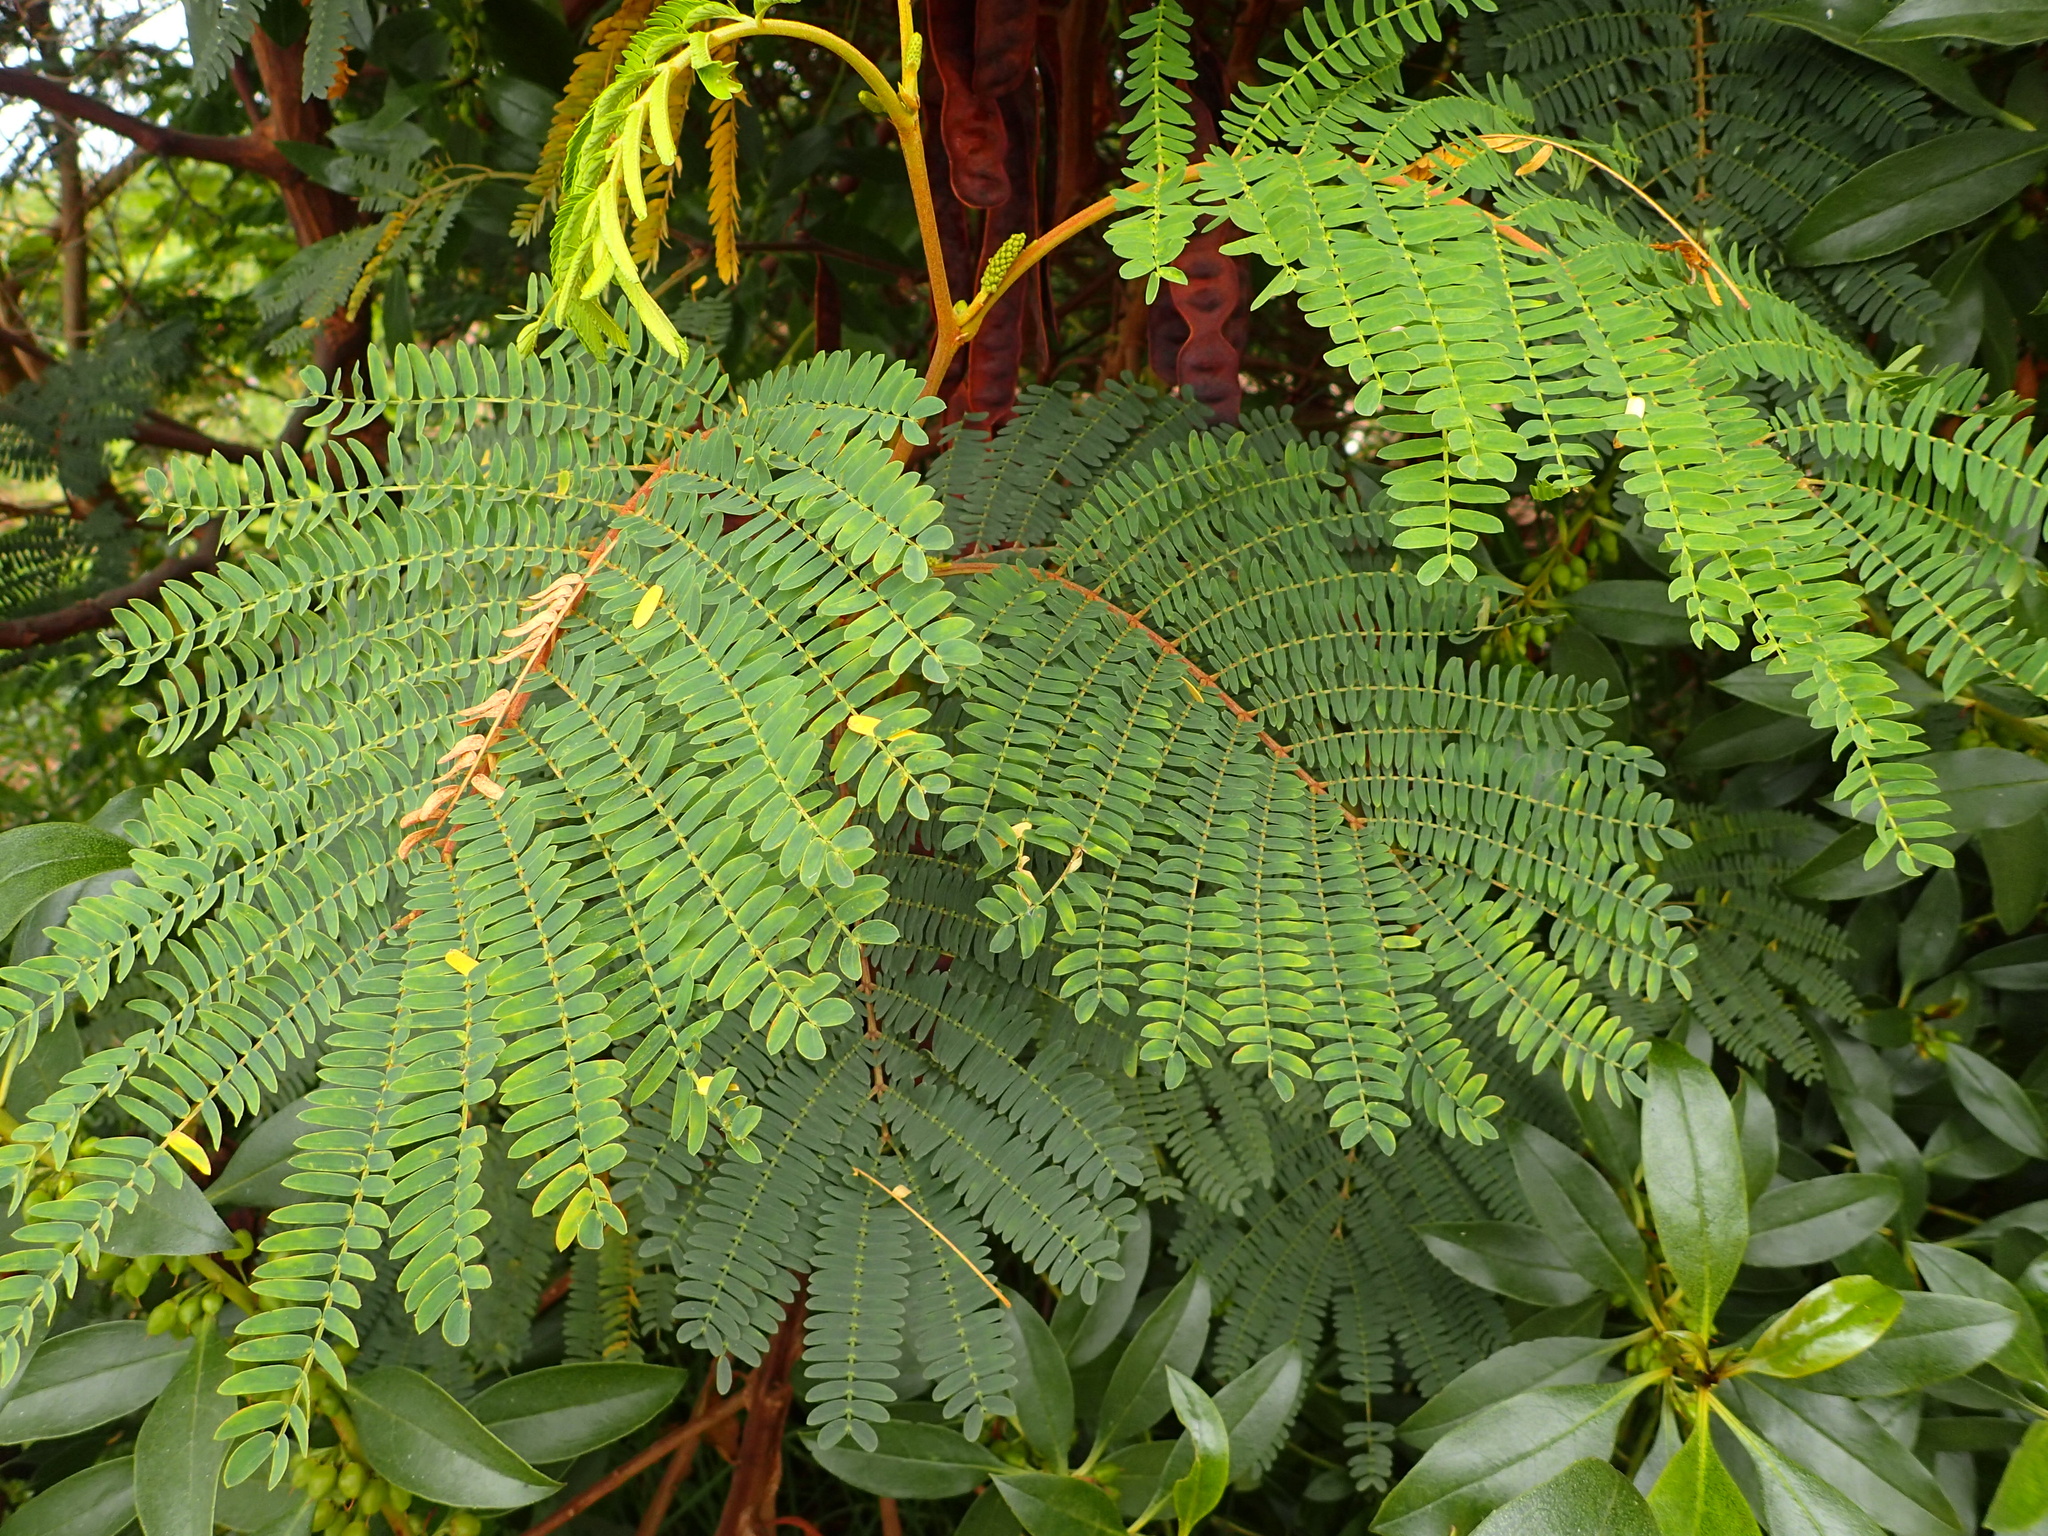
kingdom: Plantae
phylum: Tracheophyta
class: Magnoliopsida
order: Fabales
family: Fabaceae
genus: Paraserianthes
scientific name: Paraserianthes lophantha
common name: Plume albizia
